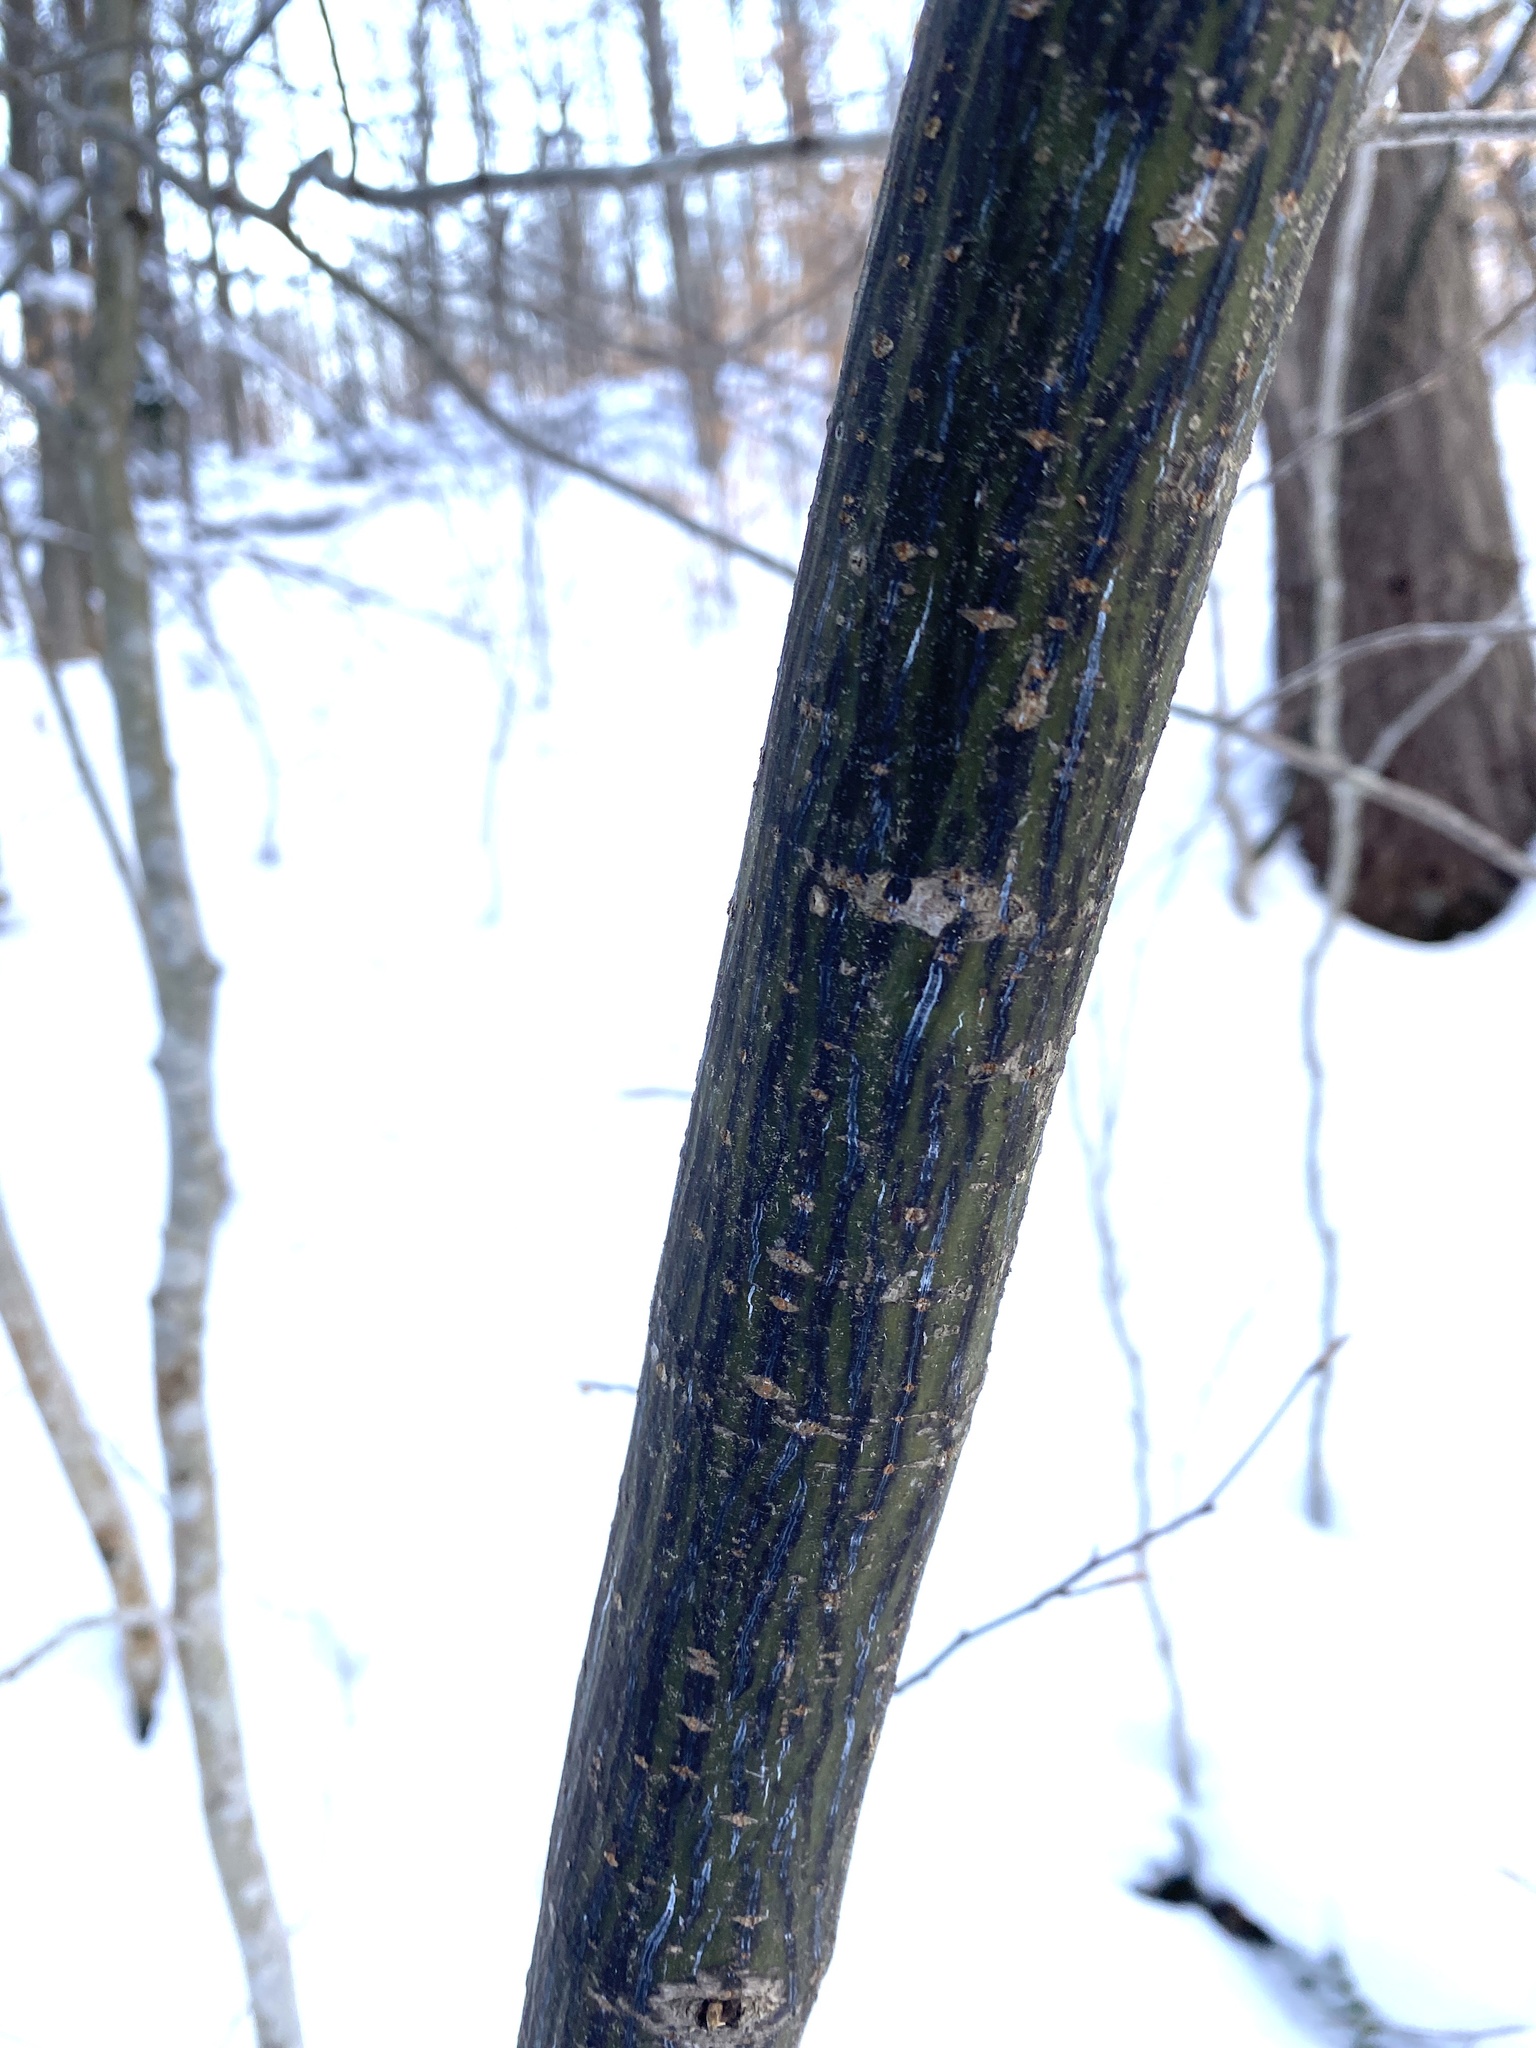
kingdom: Plantae
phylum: Tracheophyta
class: Magnoliopsida
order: Sapindales
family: Sapindaceae
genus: Acer
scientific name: Acer pensylvanicum
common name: Moosewood
